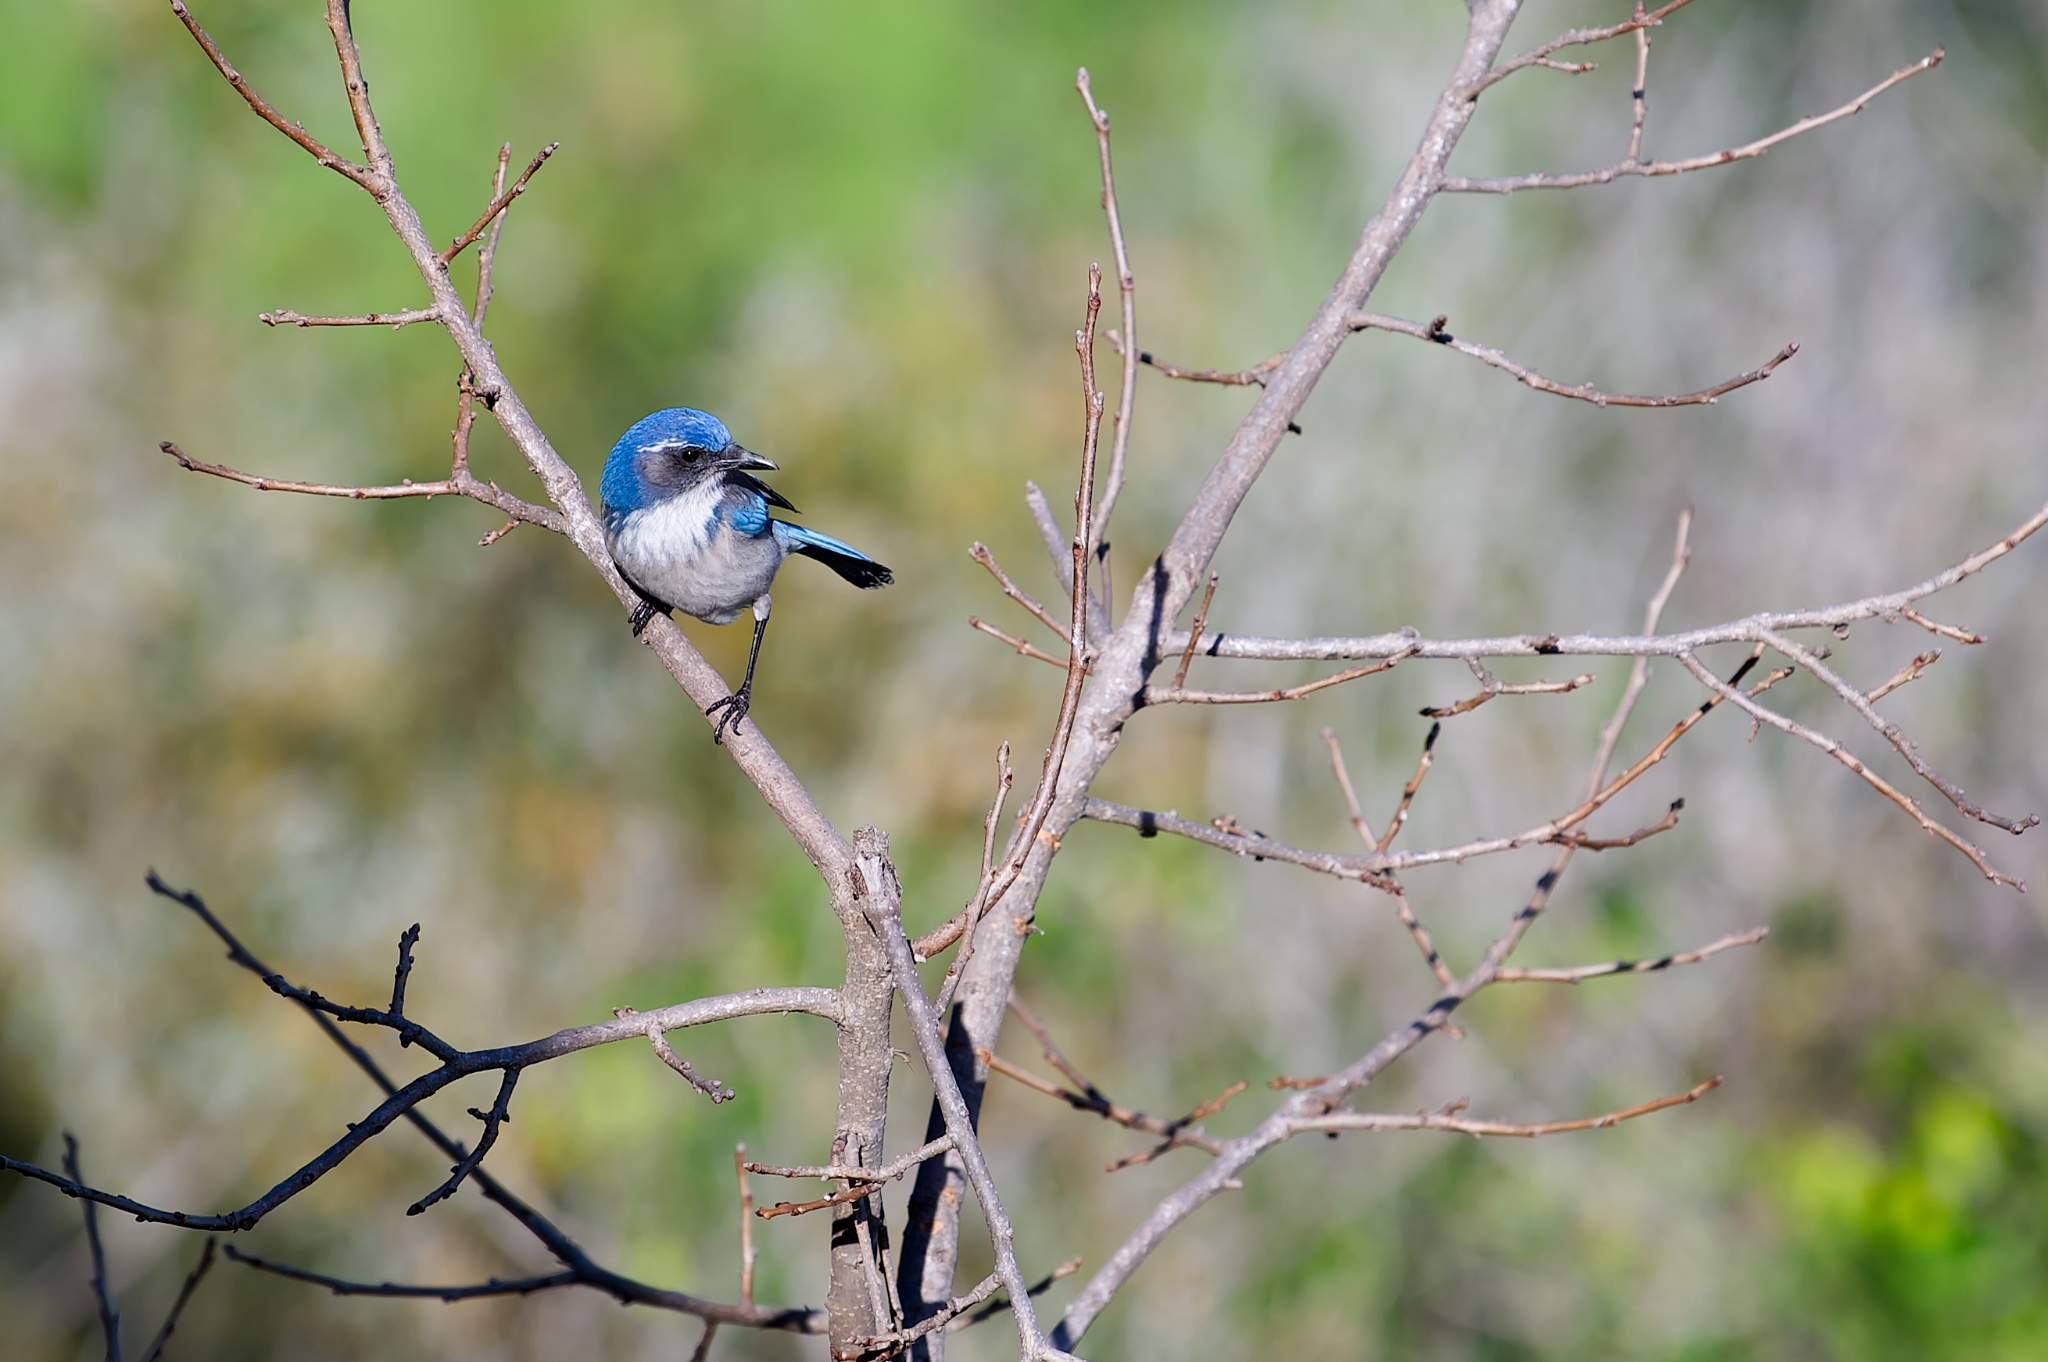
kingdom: Animalia
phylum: Chordata
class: Aves
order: Passeriformes
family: Corvidae
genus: Aphelocoma
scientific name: Aphelocoma californica
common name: California scrub-jay
